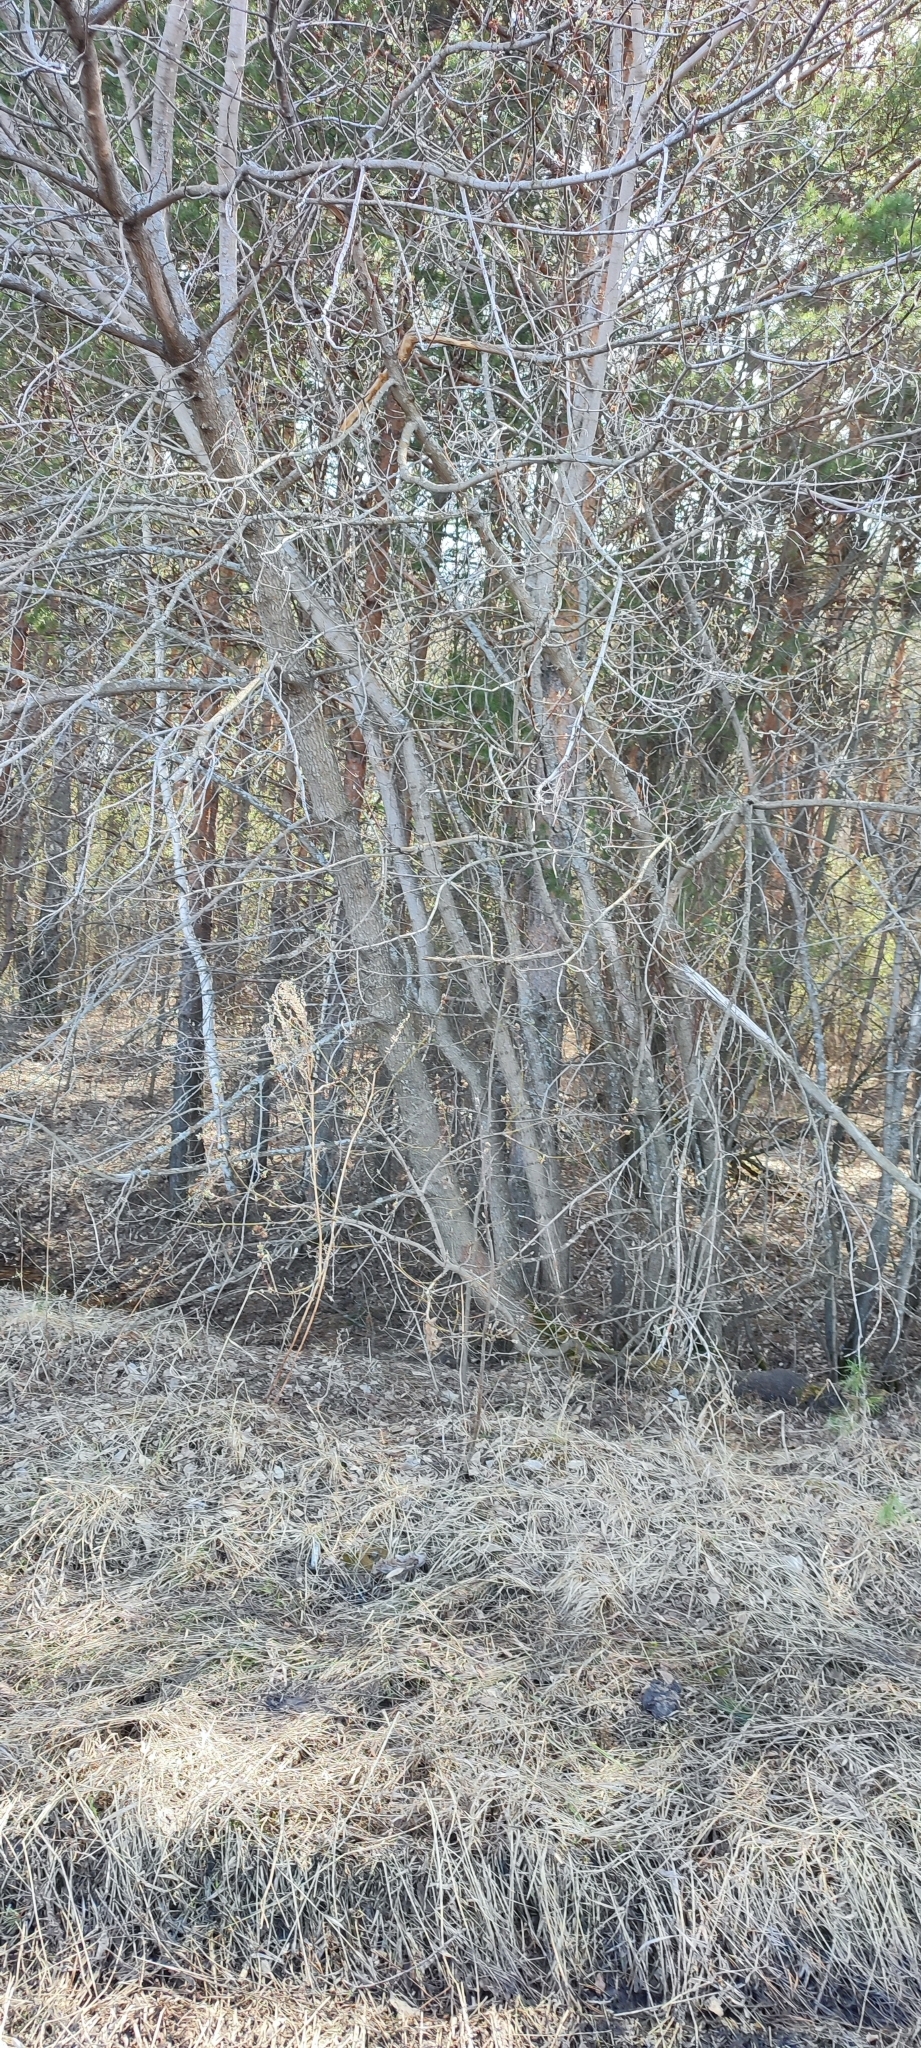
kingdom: Plantae
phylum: Tracheophyta
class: Magnoliopsida
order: Sapindales
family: Sapindaceae
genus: Acer
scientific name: Acer negundo
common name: Ashleaf maple
